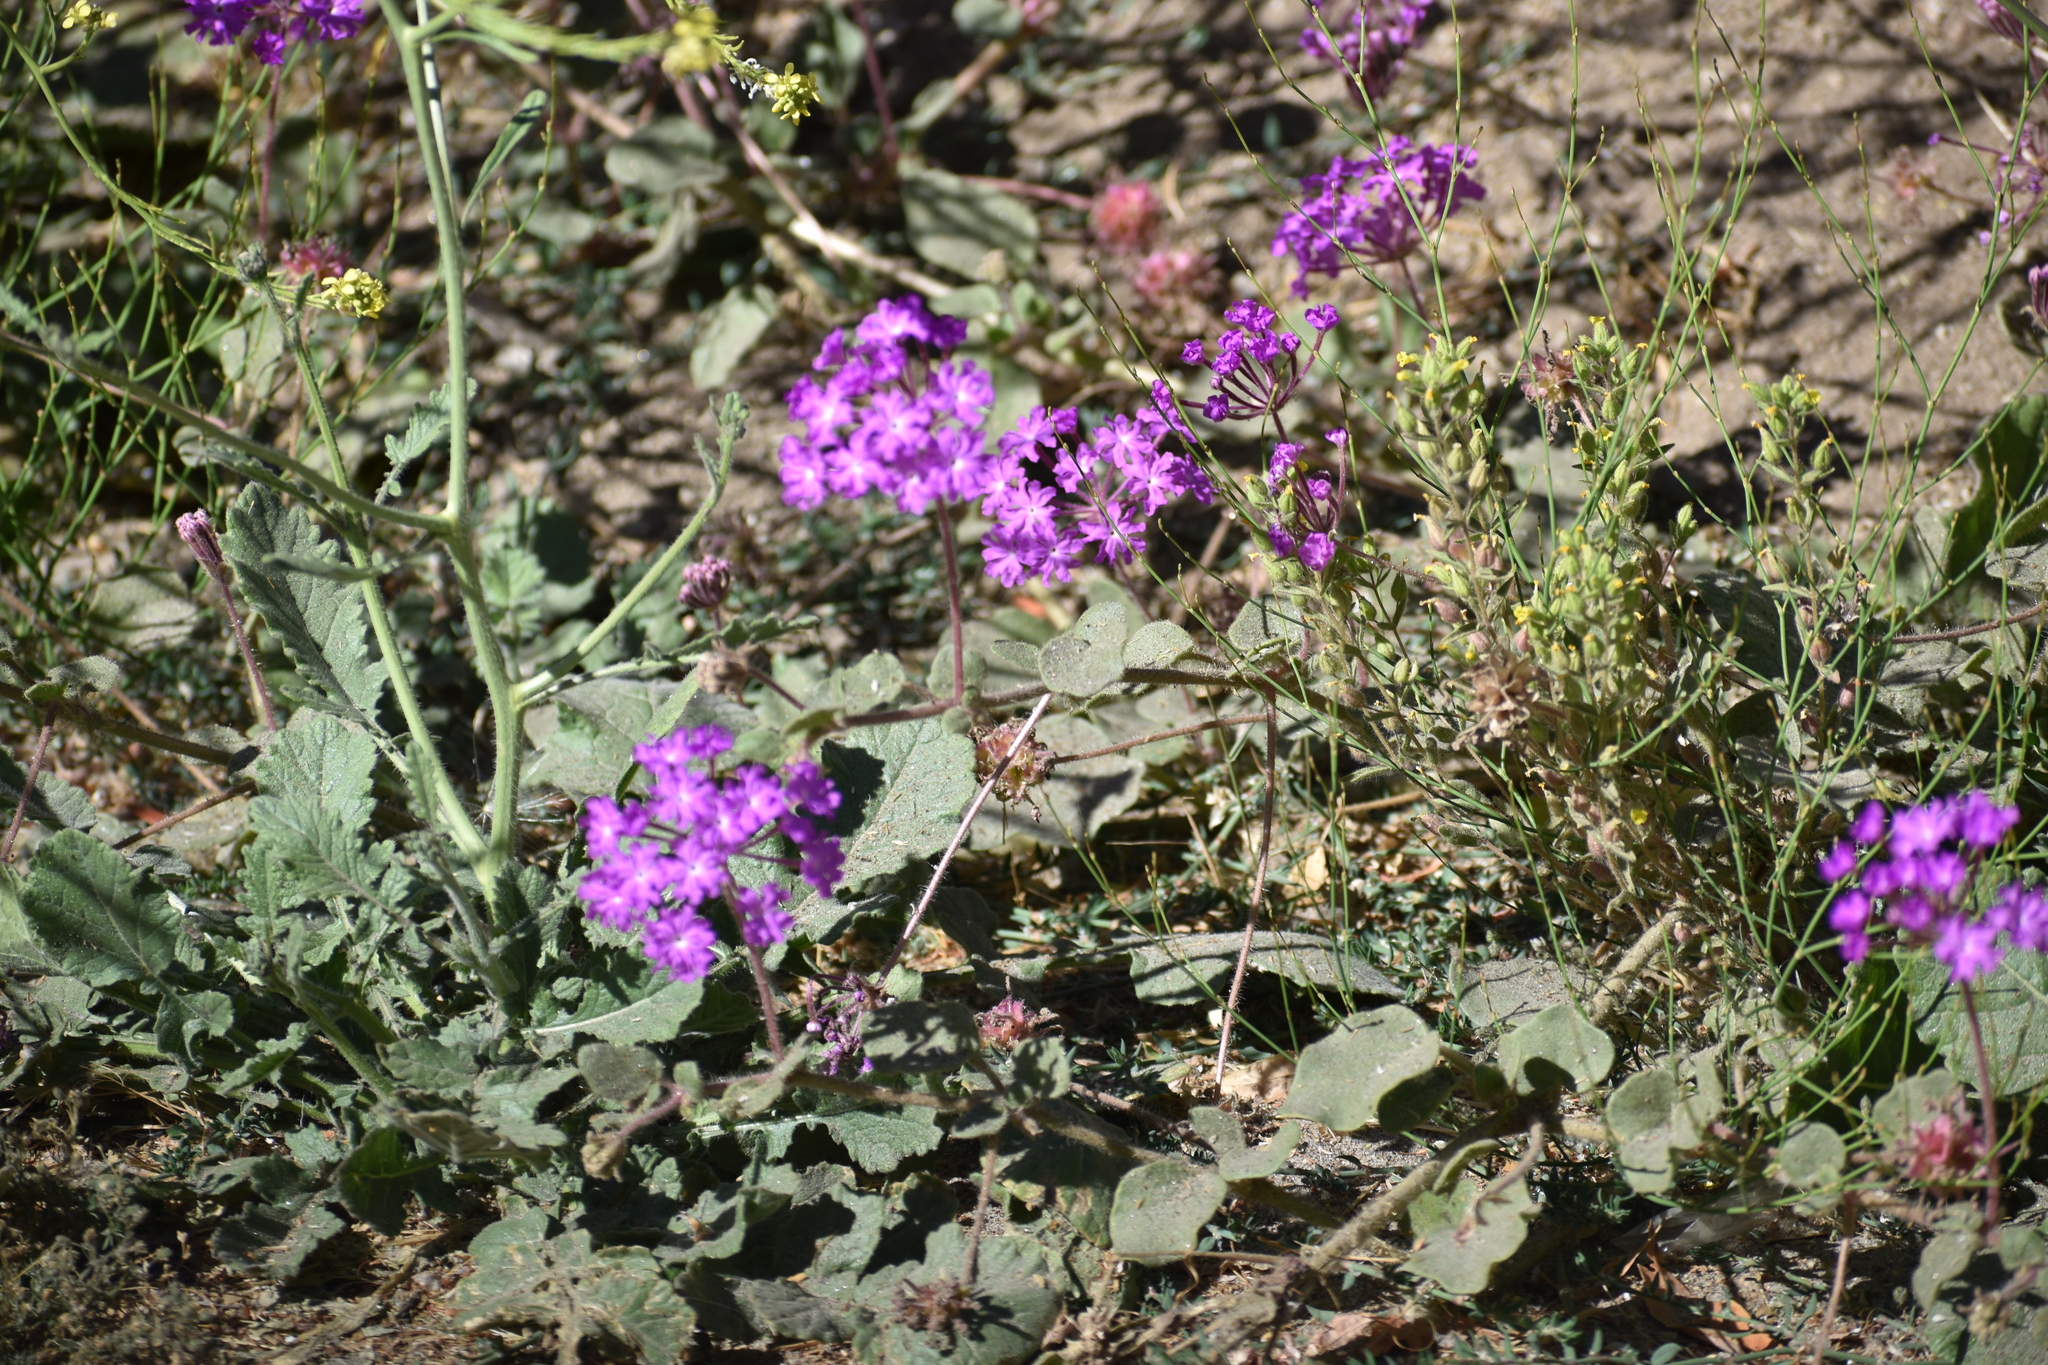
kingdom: Plantae
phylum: Tracheophyta
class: Magnoliopsida
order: Caryophyllales
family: Nyctaginaceae
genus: Abronia
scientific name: Abronia villosa
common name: Desert sand-verbena
